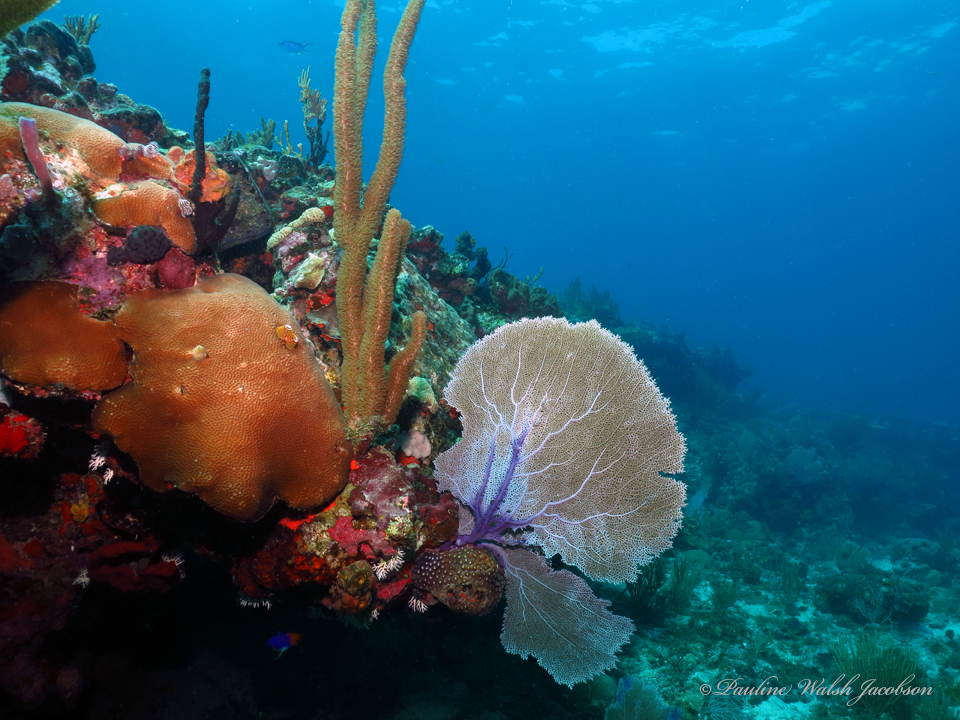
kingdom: Animalia
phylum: Cnidaria
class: Anthozoa
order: Malacalcyonacea
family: Gorgoniidae
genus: Gorgonia
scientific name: Gorgonia ventalina
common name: Common sea fan
